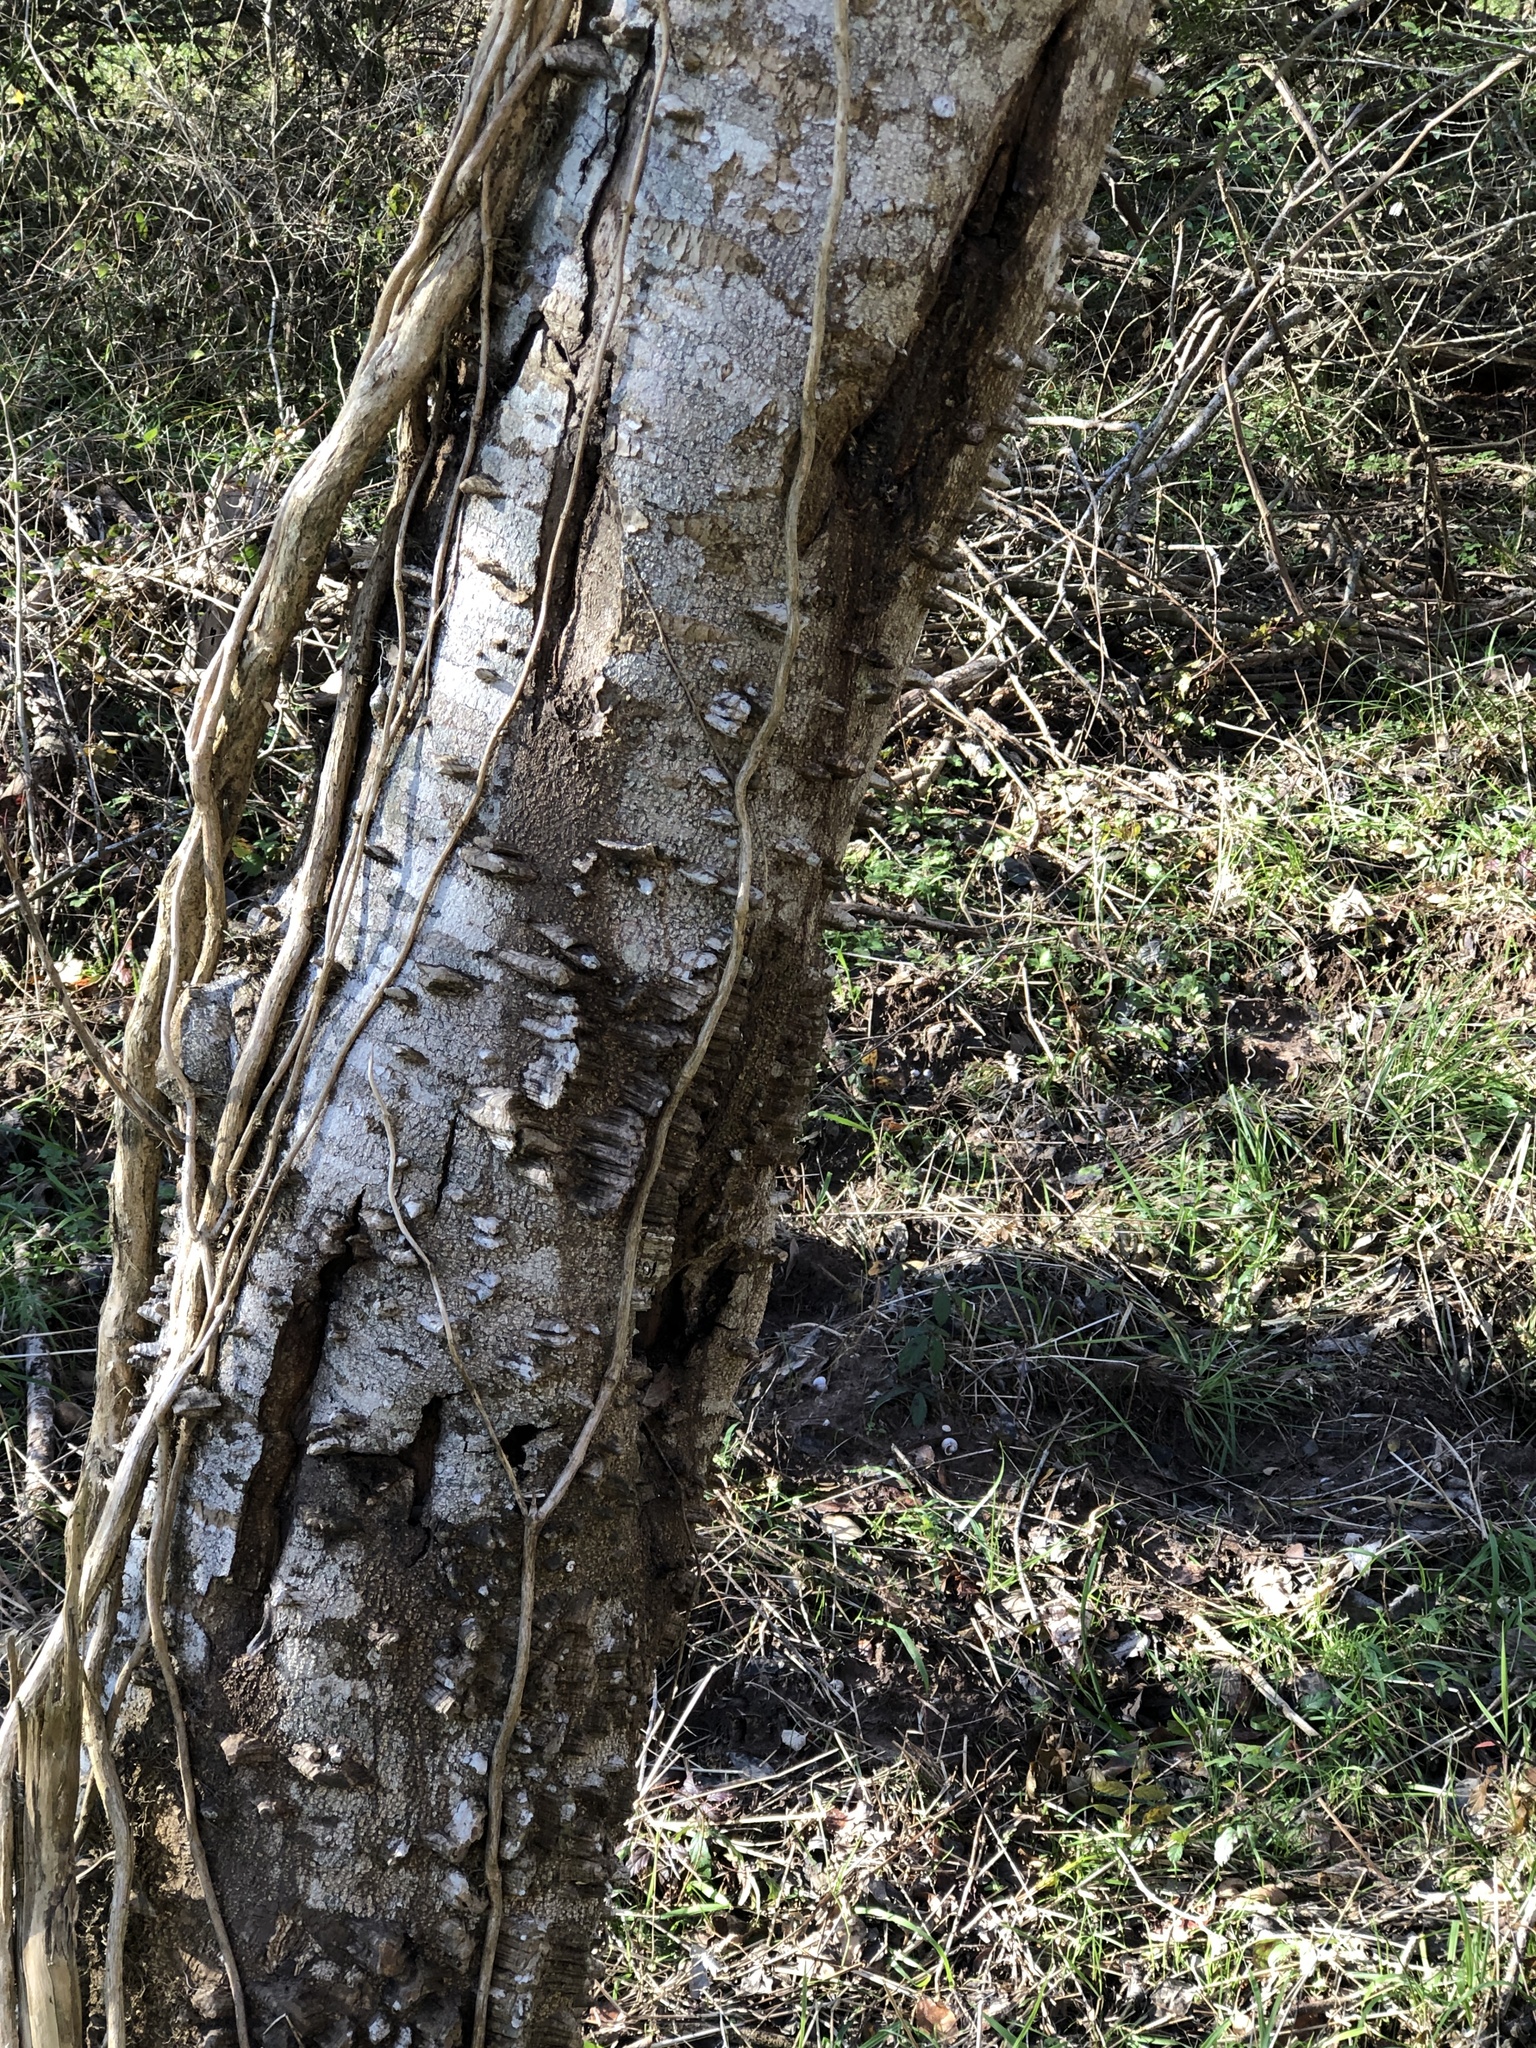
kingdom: Plantae
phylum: Tracheophyta
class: Magnoliopsida
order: Sapindales
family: Rutaceae
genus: Zanthoxylum
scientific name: Zanthoxylum clava-herculis
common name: Hercules'-club
